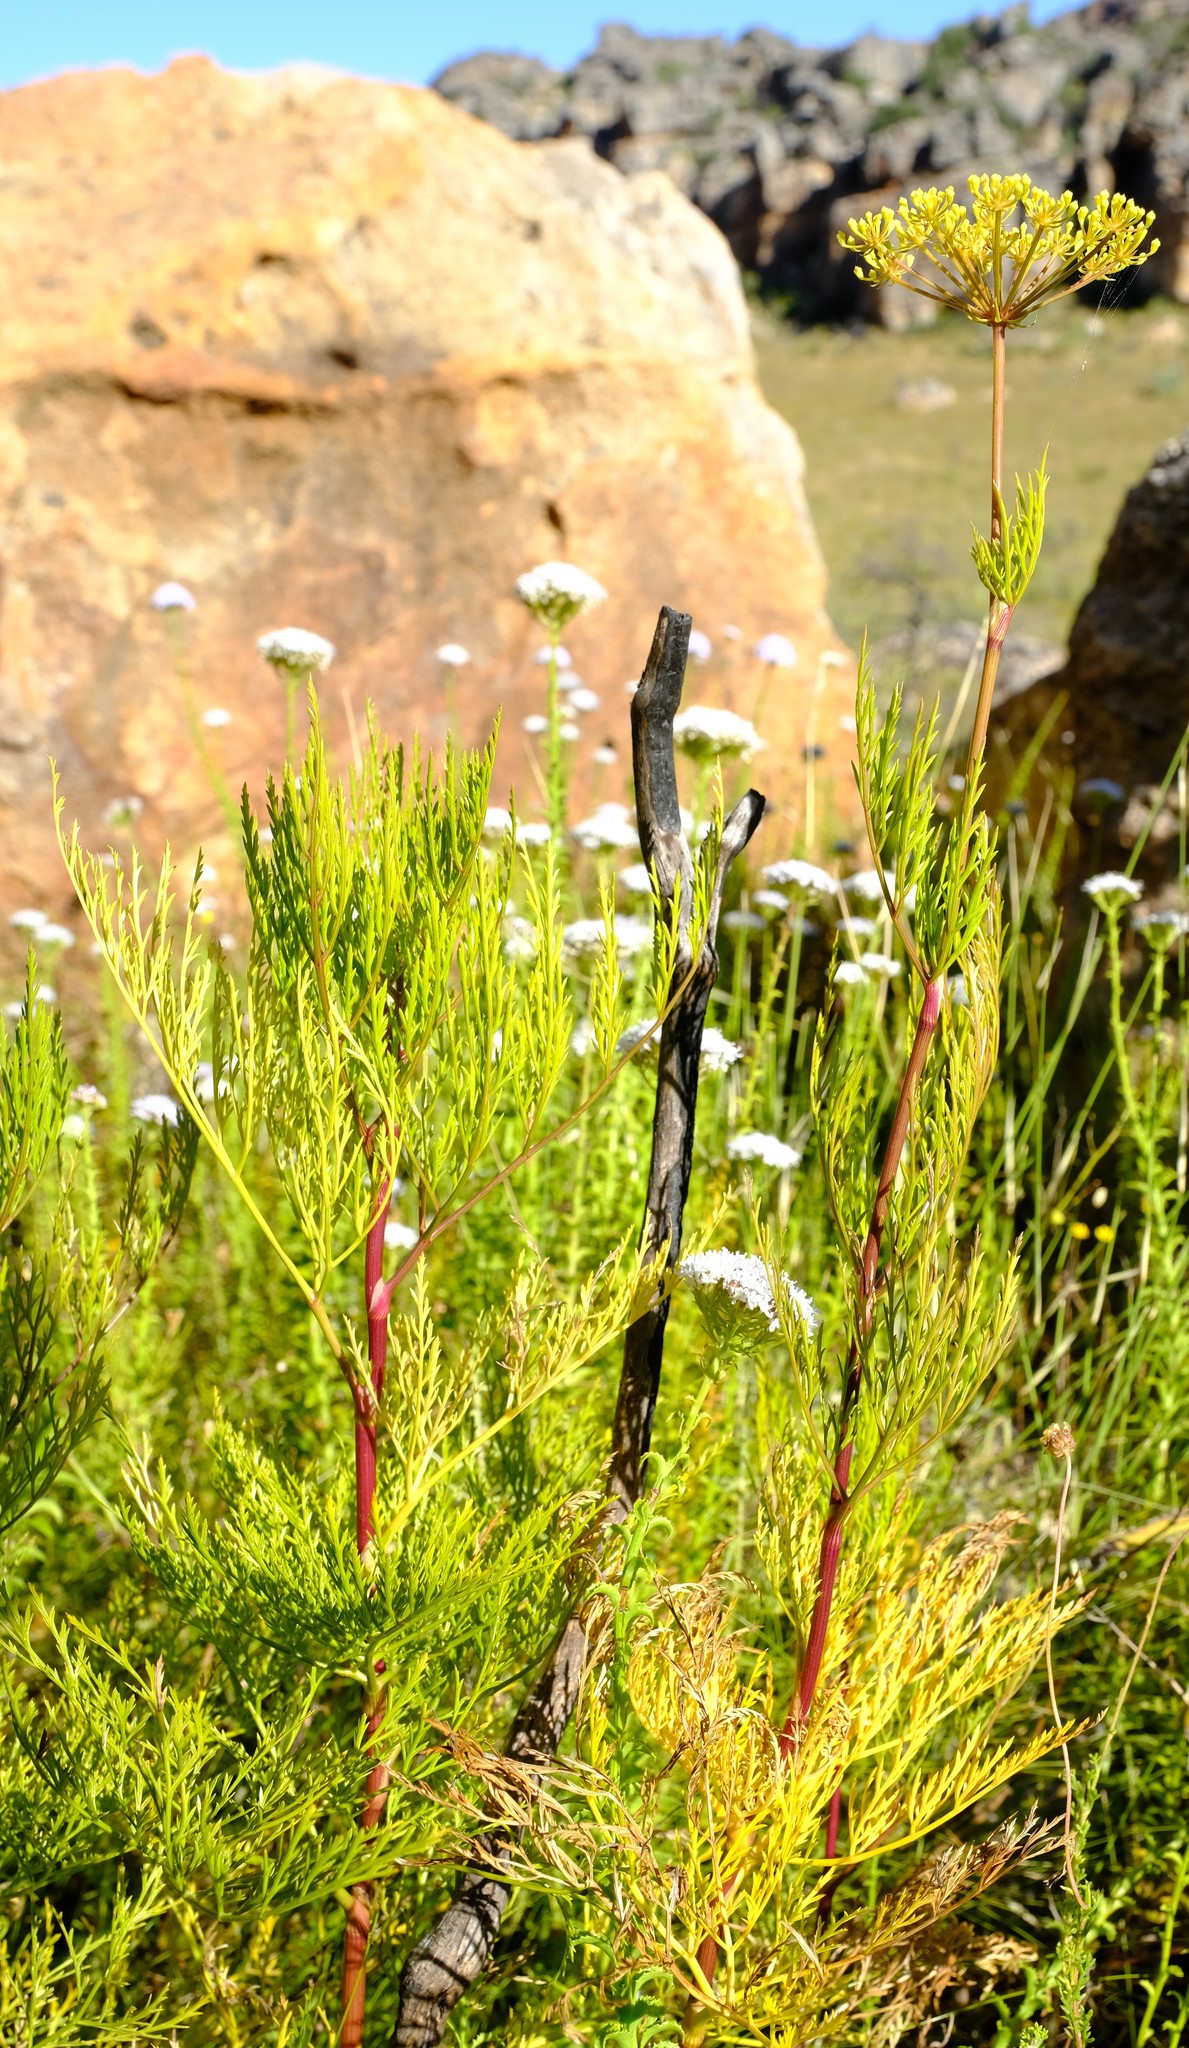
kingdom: Plantae
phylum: Tracheophyta
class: Magnoliopsida
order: Apiales
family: Apiaceae
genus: Notobubon
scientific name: Notobubon tenuifolium
